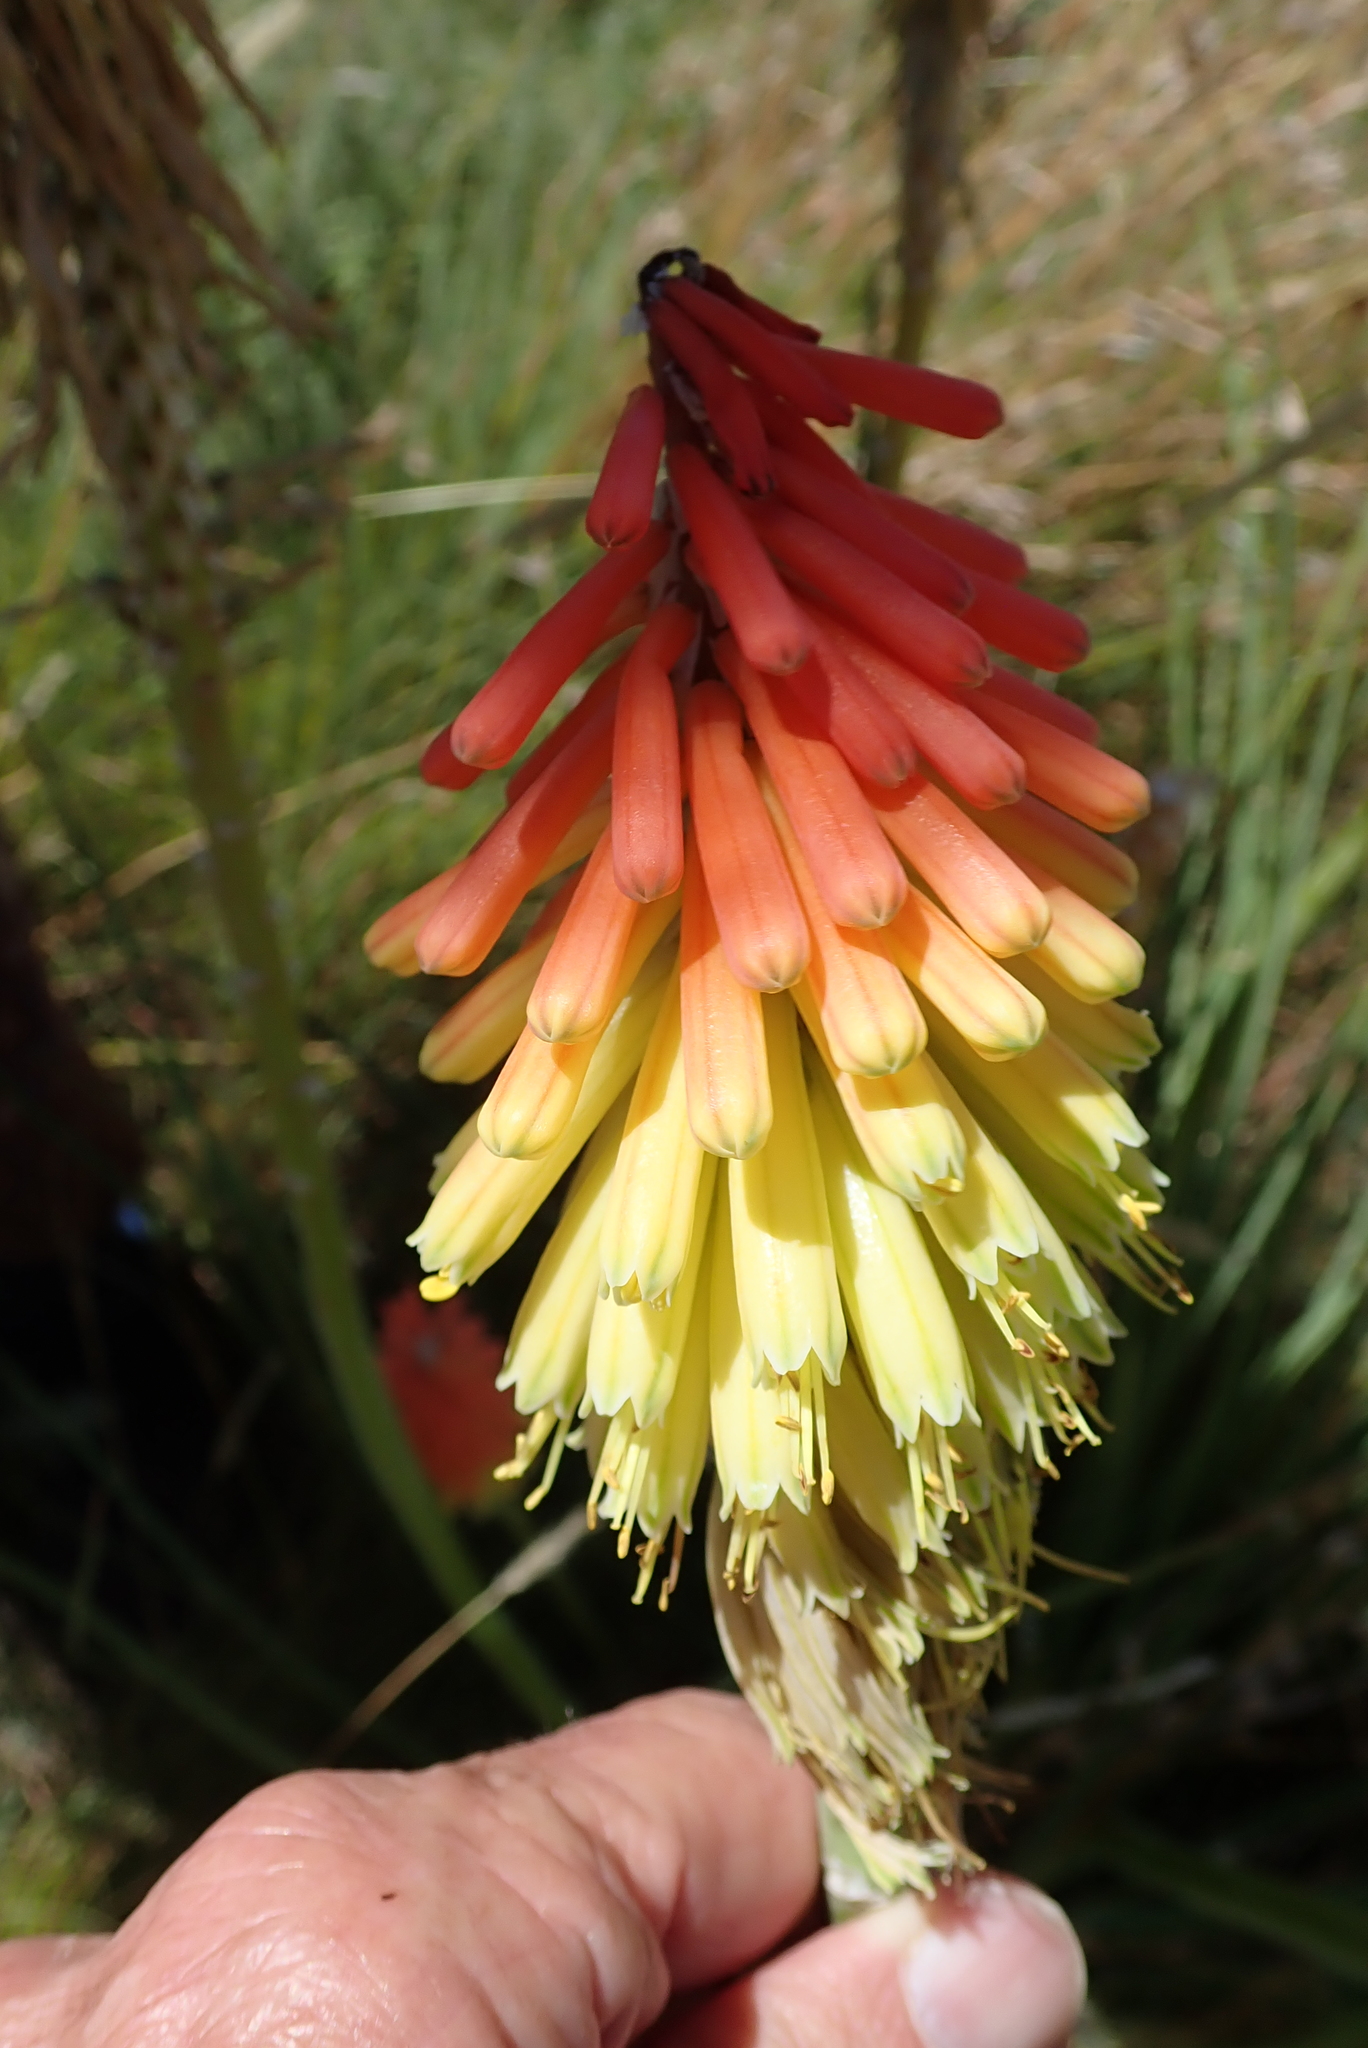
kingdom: Plantae
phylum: Tracheophyta
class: Liliopsida
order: Asparagales
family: Asphodelaceae
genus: Kniphofia
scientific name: Kniphofia stricta
